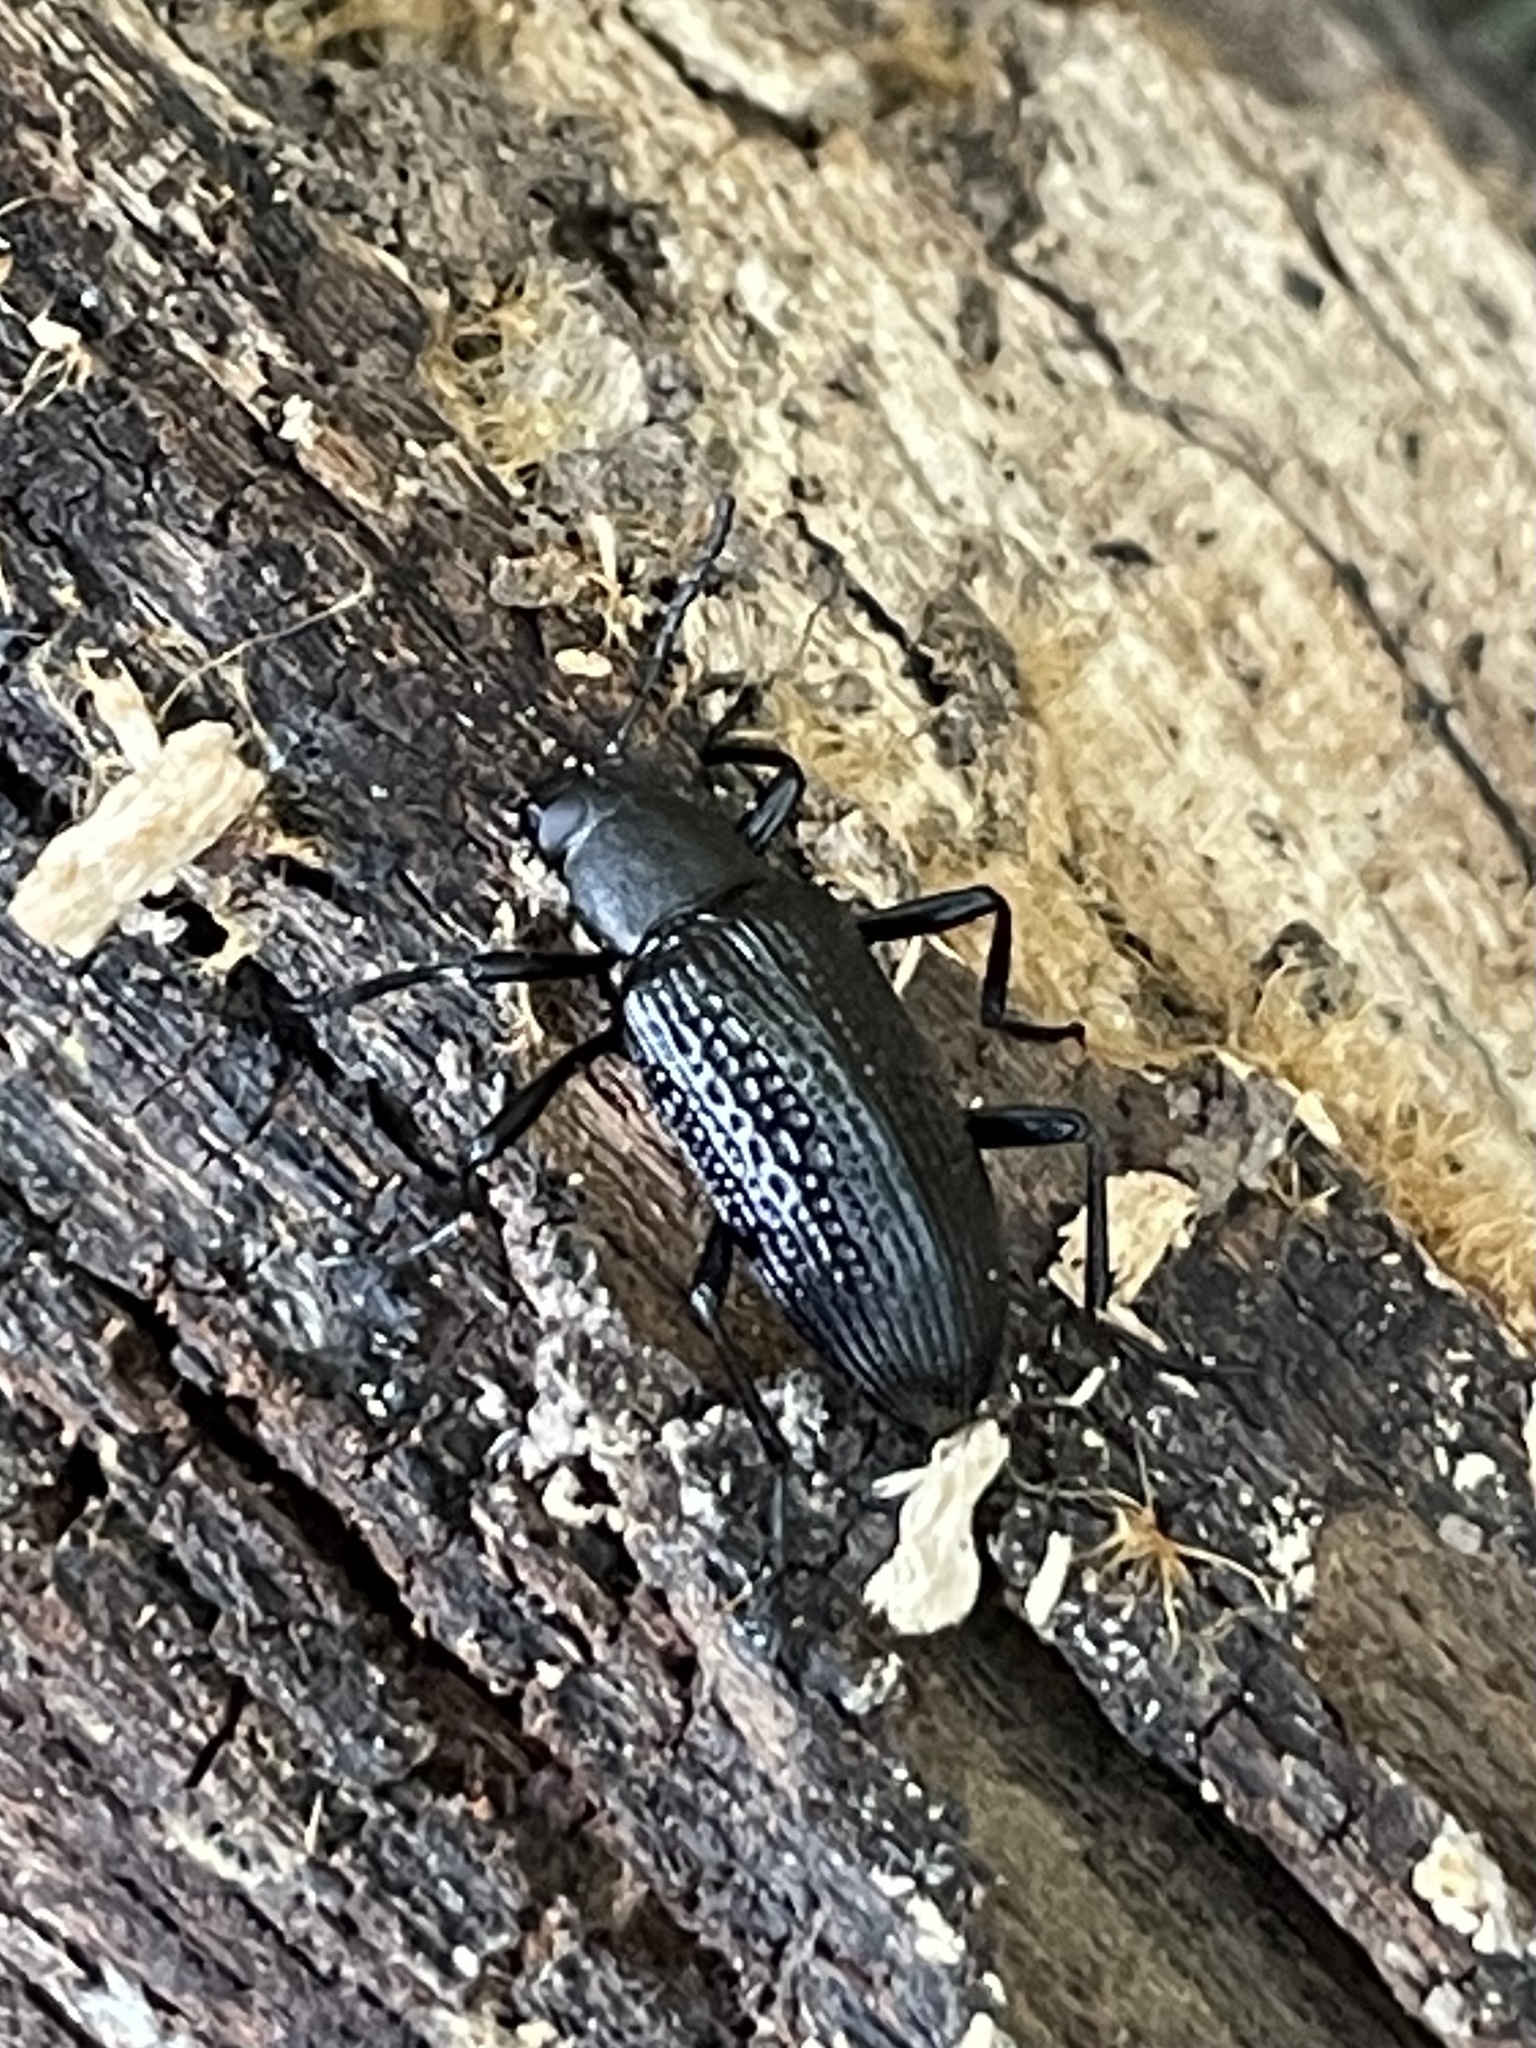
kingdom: Animalia
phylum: Arthropoda
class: Insecta
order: Coleoptera
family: Tenebrionidae
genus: Strongylium
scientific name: Strongylium hemistriatum
